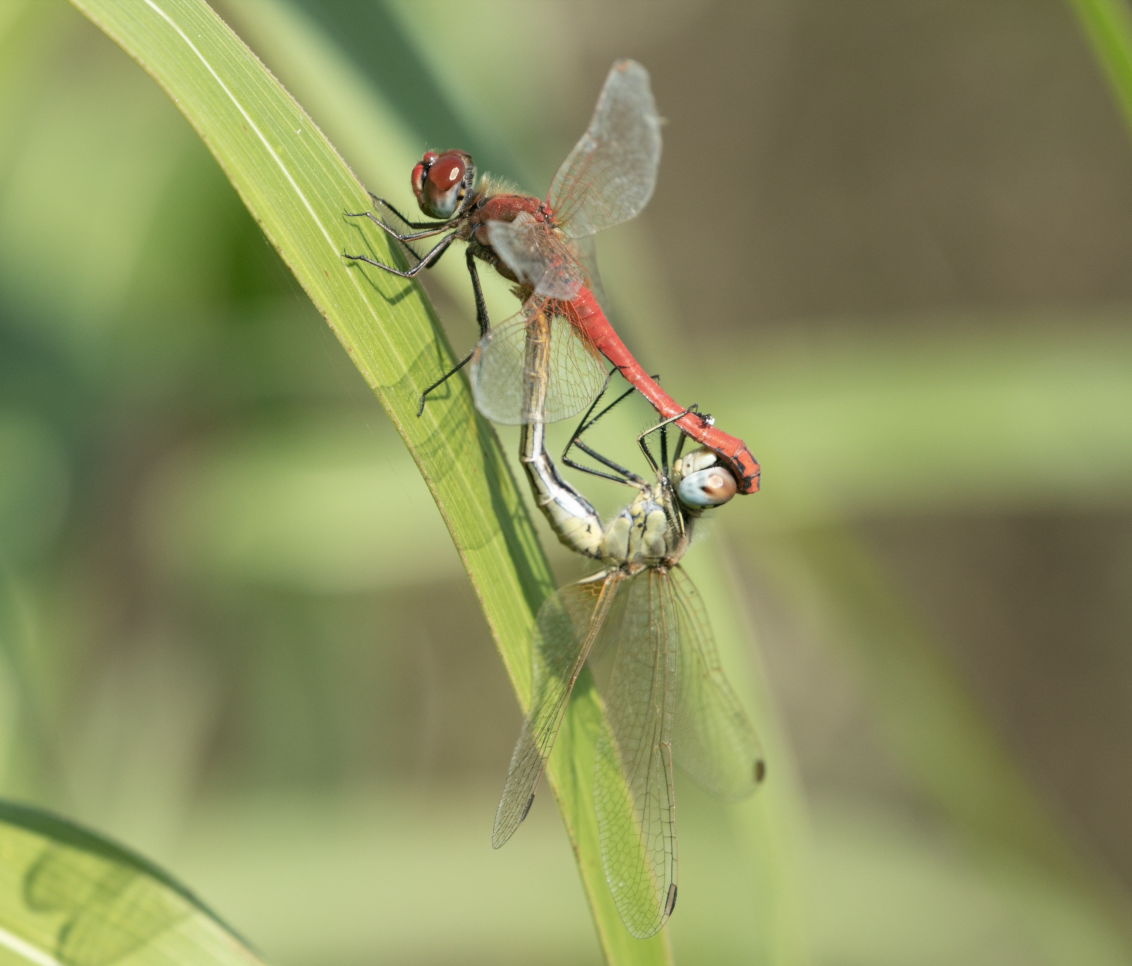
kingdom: Animalia
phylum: Arthropoda
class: Insecta
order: Odonata
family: Libellulidae
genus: Sympetrum
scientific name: Sympetrum fonscolombii
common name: Red-veined darter
